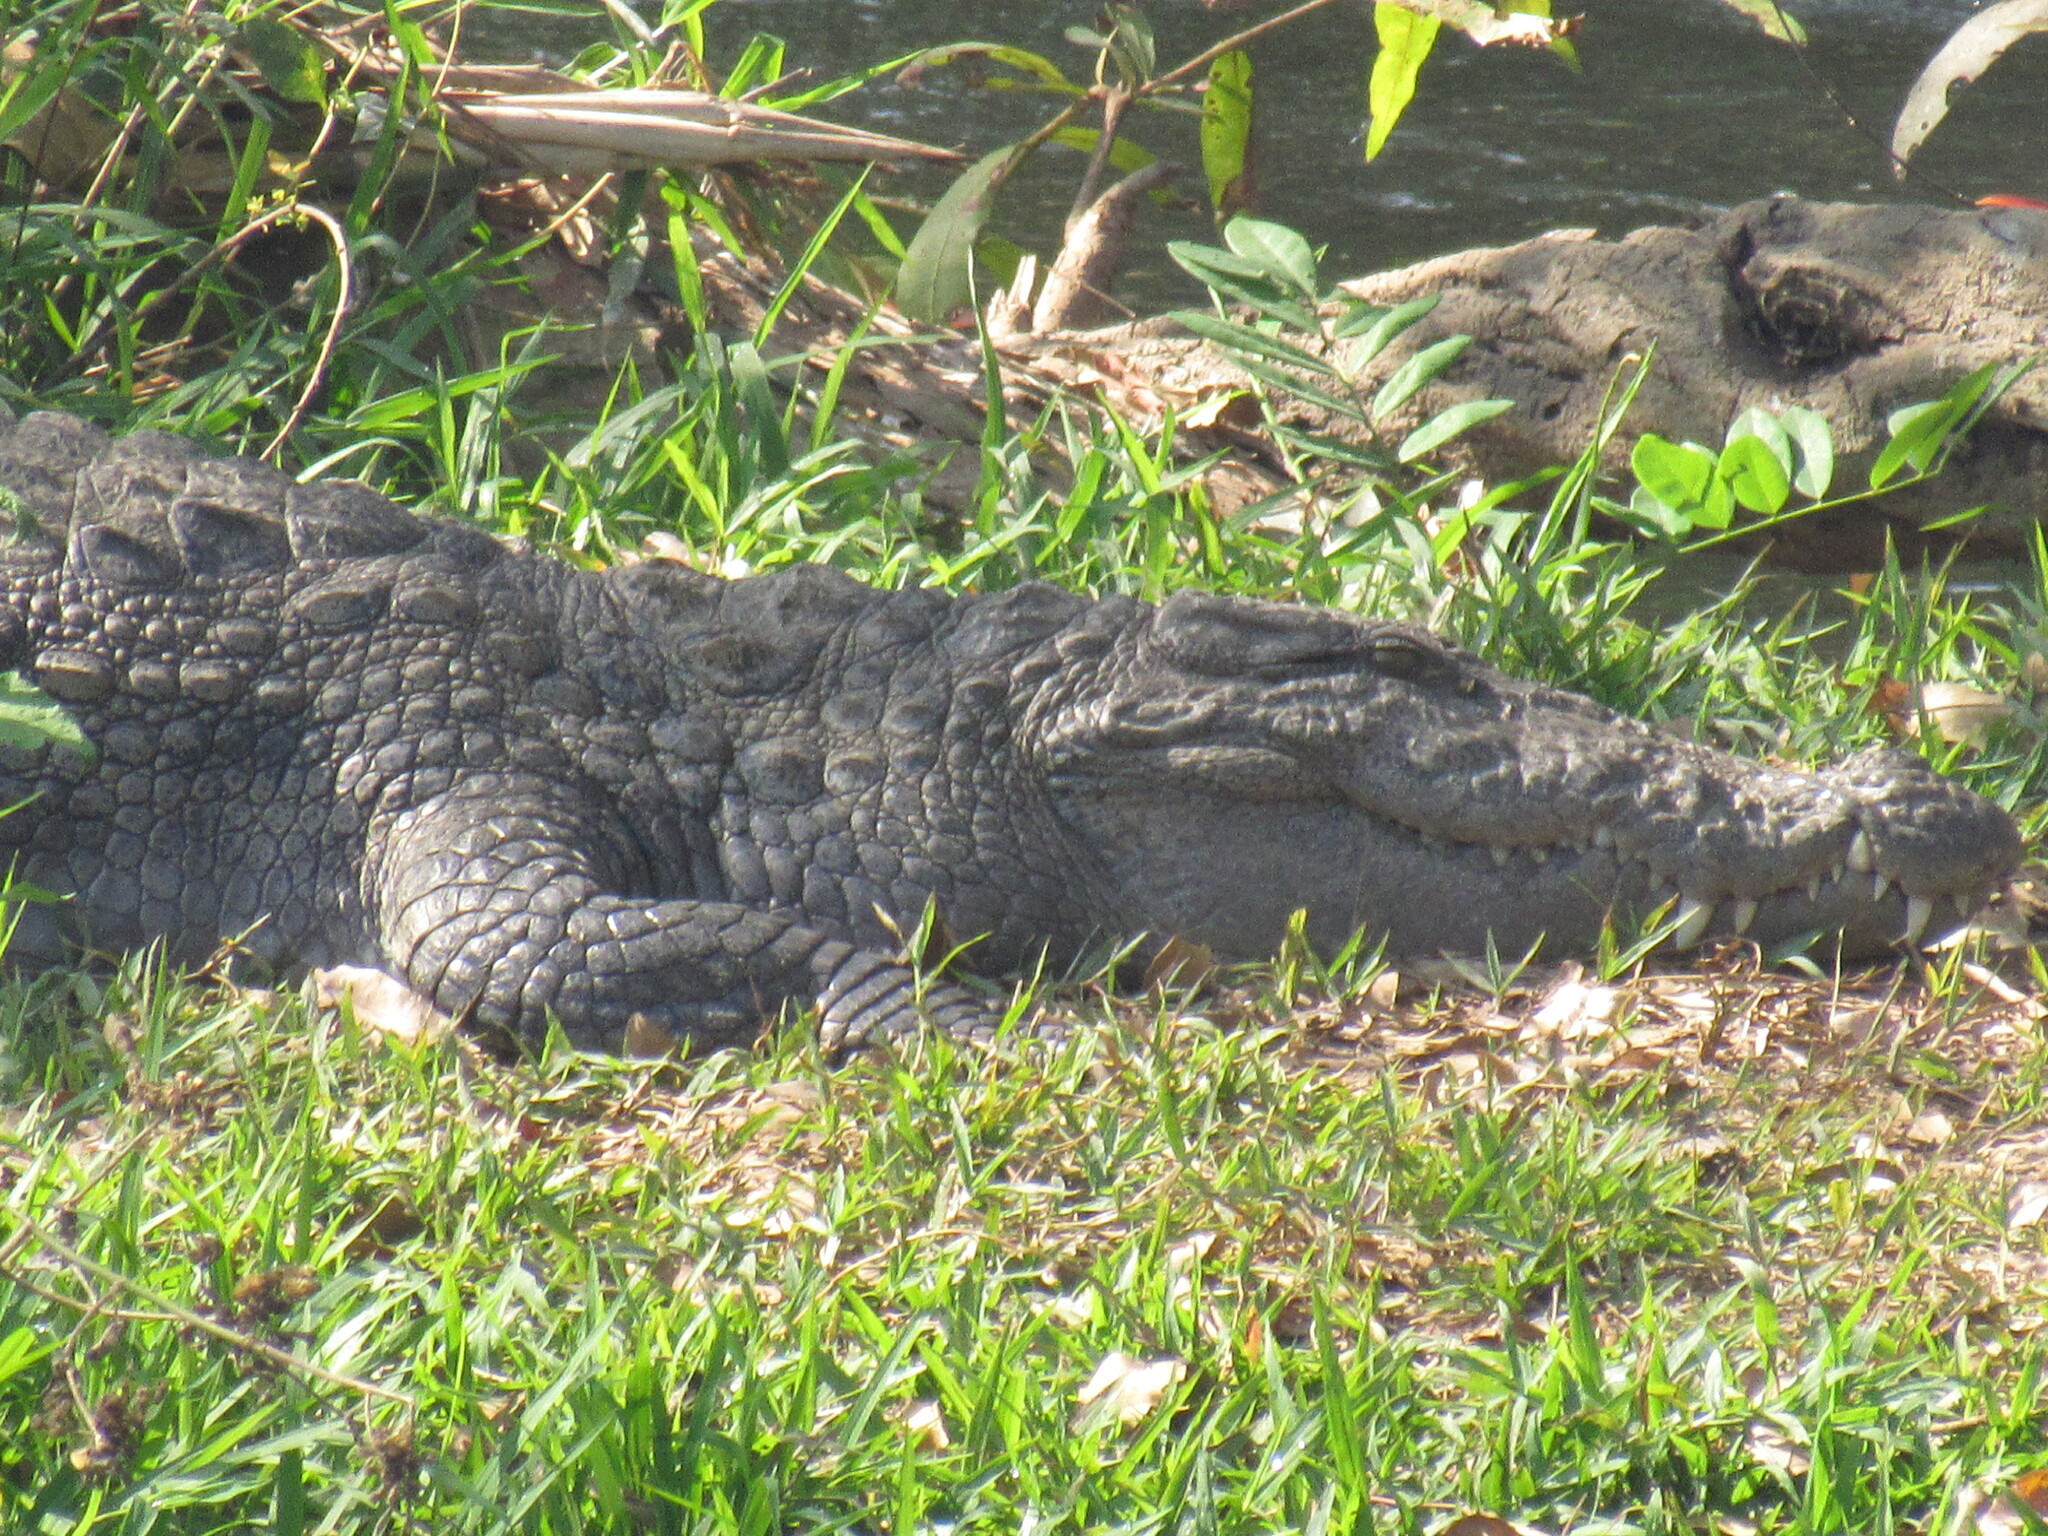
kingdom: Animalia
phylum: Chordata
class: Crocodylia
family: Crocodylidae
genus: Crocodylus
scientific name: Crocodylus palustris
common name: Mugger crocodile
